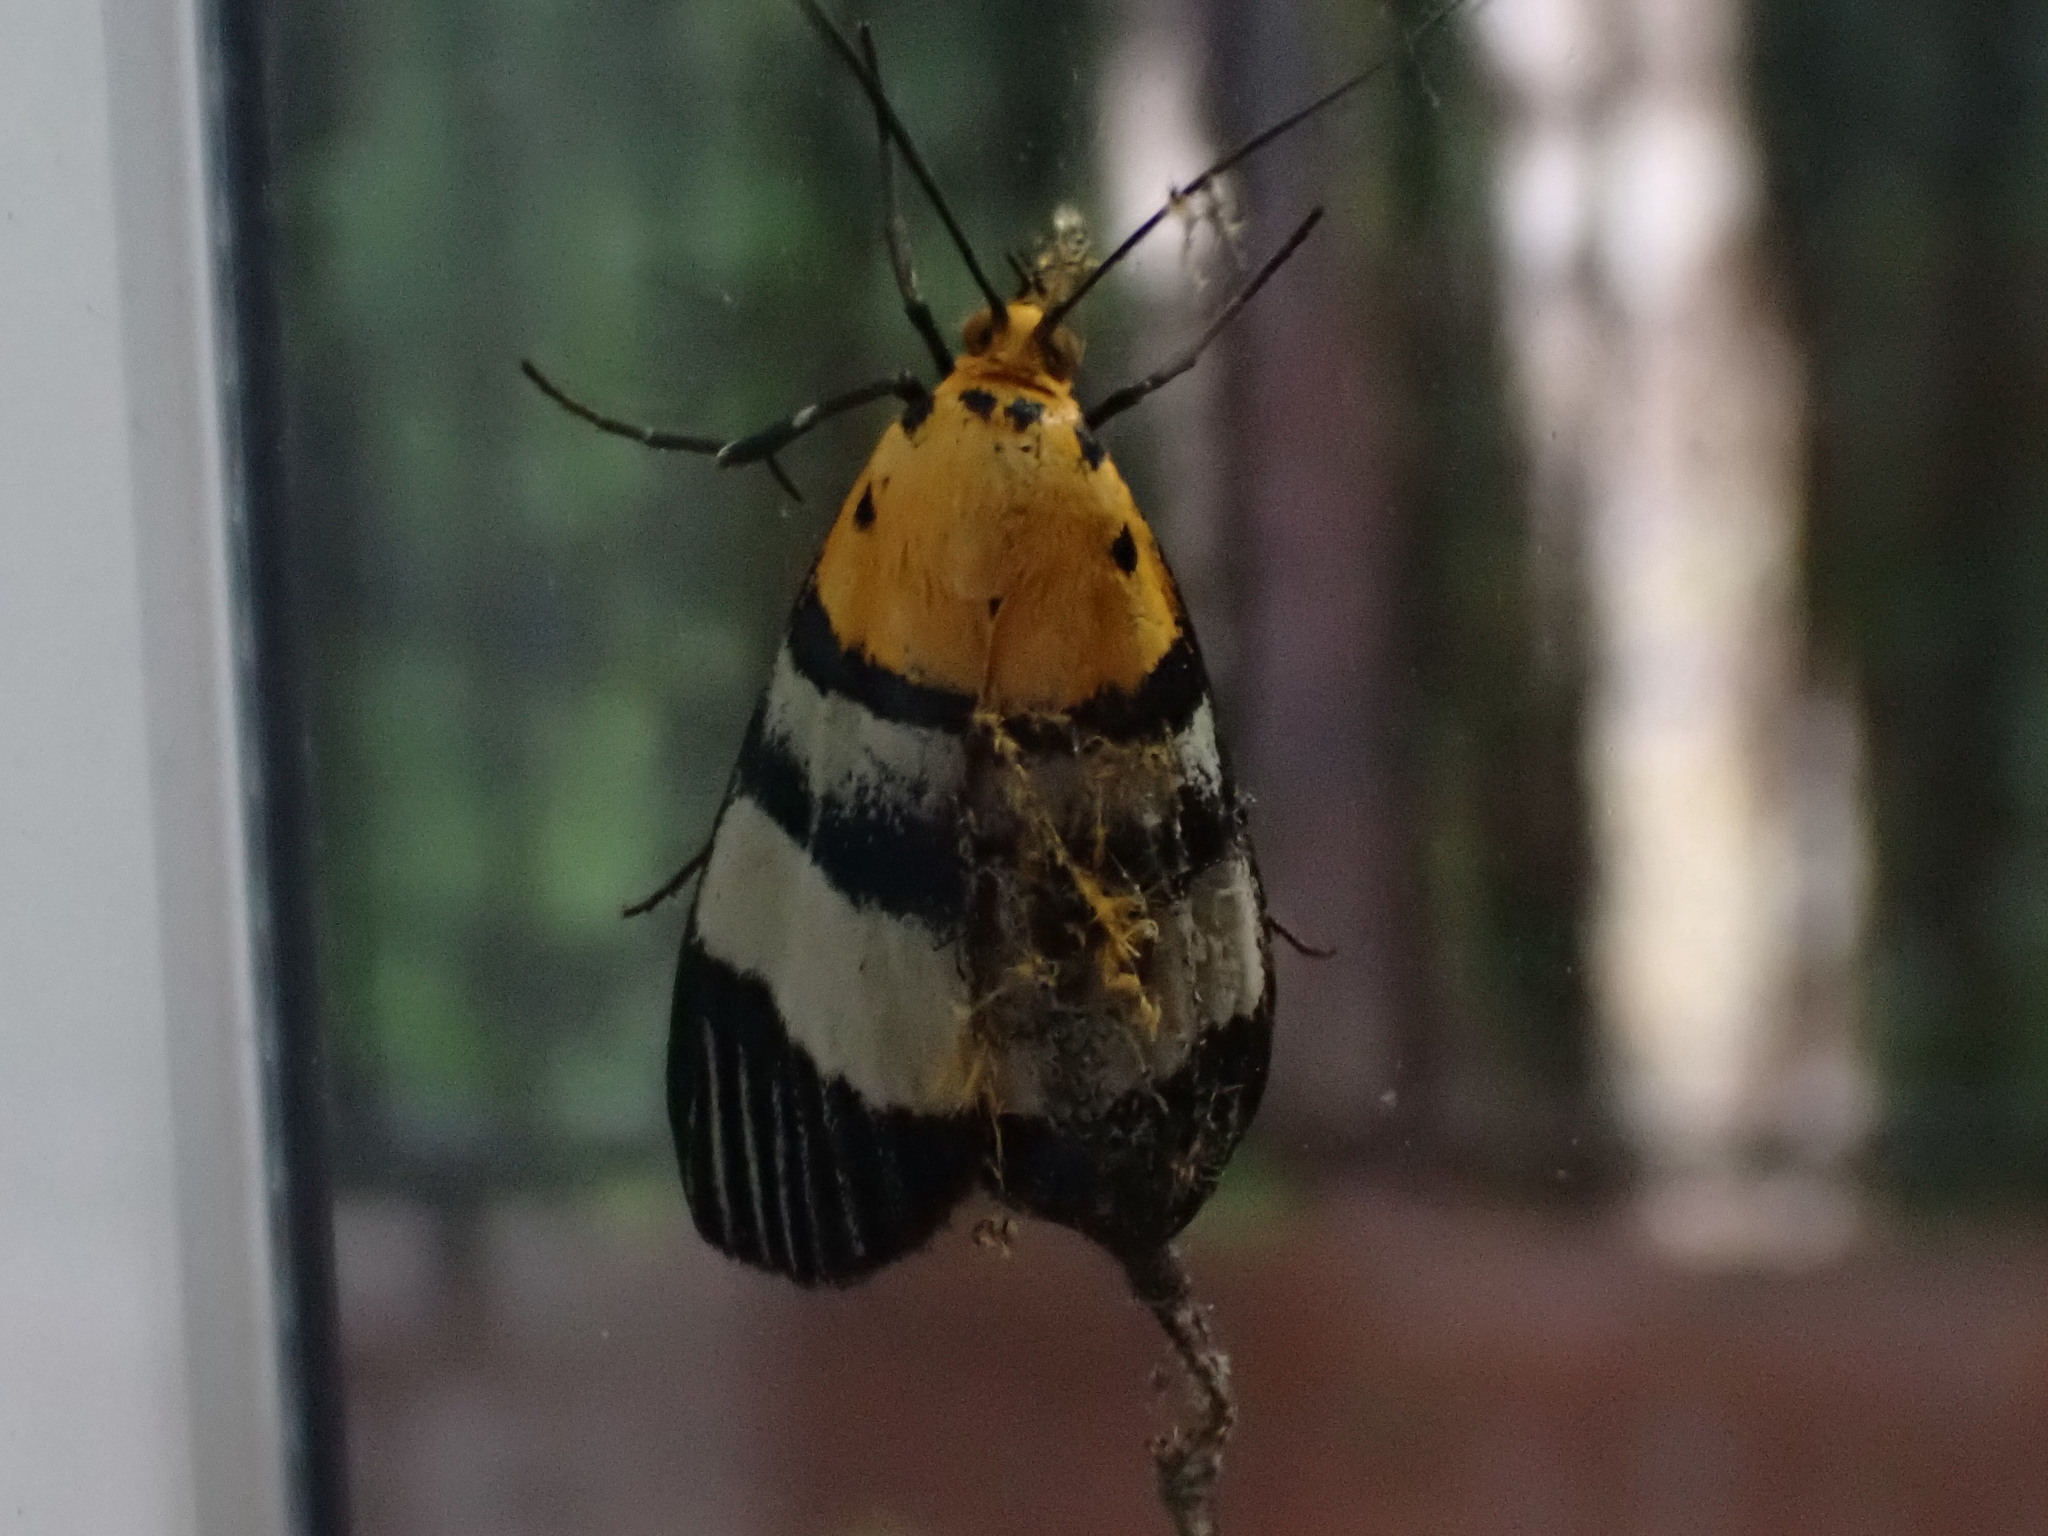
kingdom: Animalia
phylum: Arthropoda
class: Insecta
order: Lepidoptera
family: Pyralidae
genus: Vitessa
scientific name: Vitessa zemire
